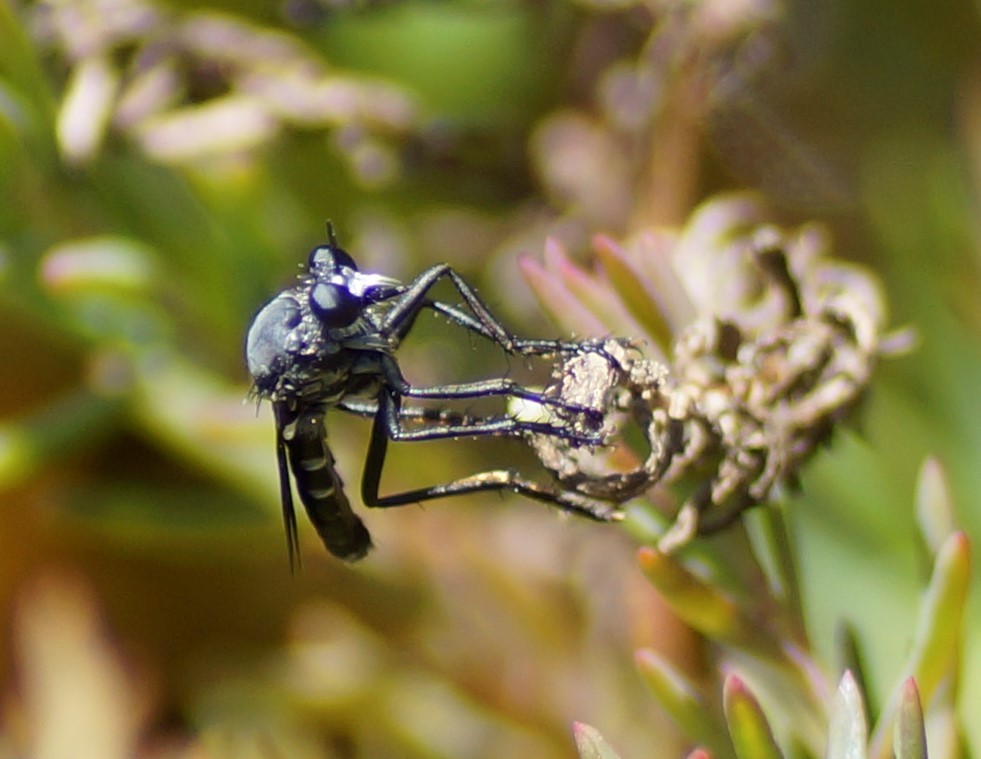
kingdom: Animalia
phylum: Arthropoda
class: Insecta
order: Diptera
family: Asilidae
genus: Apothechyla
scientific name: Apothechyla
